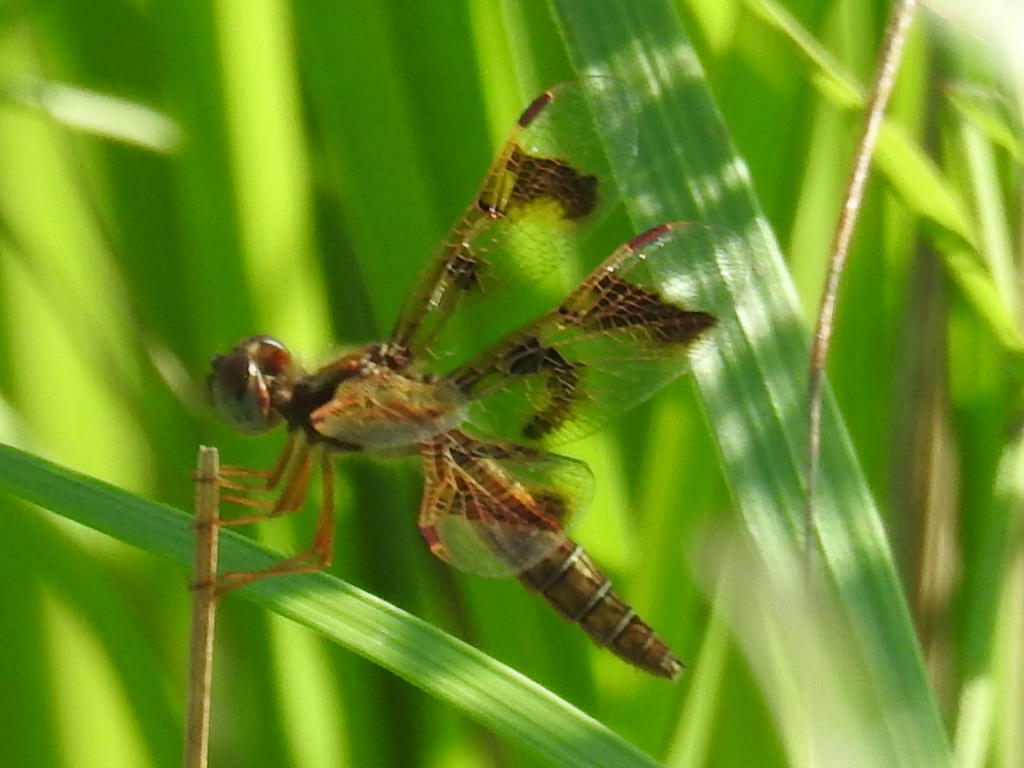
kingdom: Animalia
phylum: Arthropoda
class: Insecta
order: Odonata
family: Libellulidae
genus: Perithemis
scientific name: Perithemis tenera
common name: Eastern amberwing
